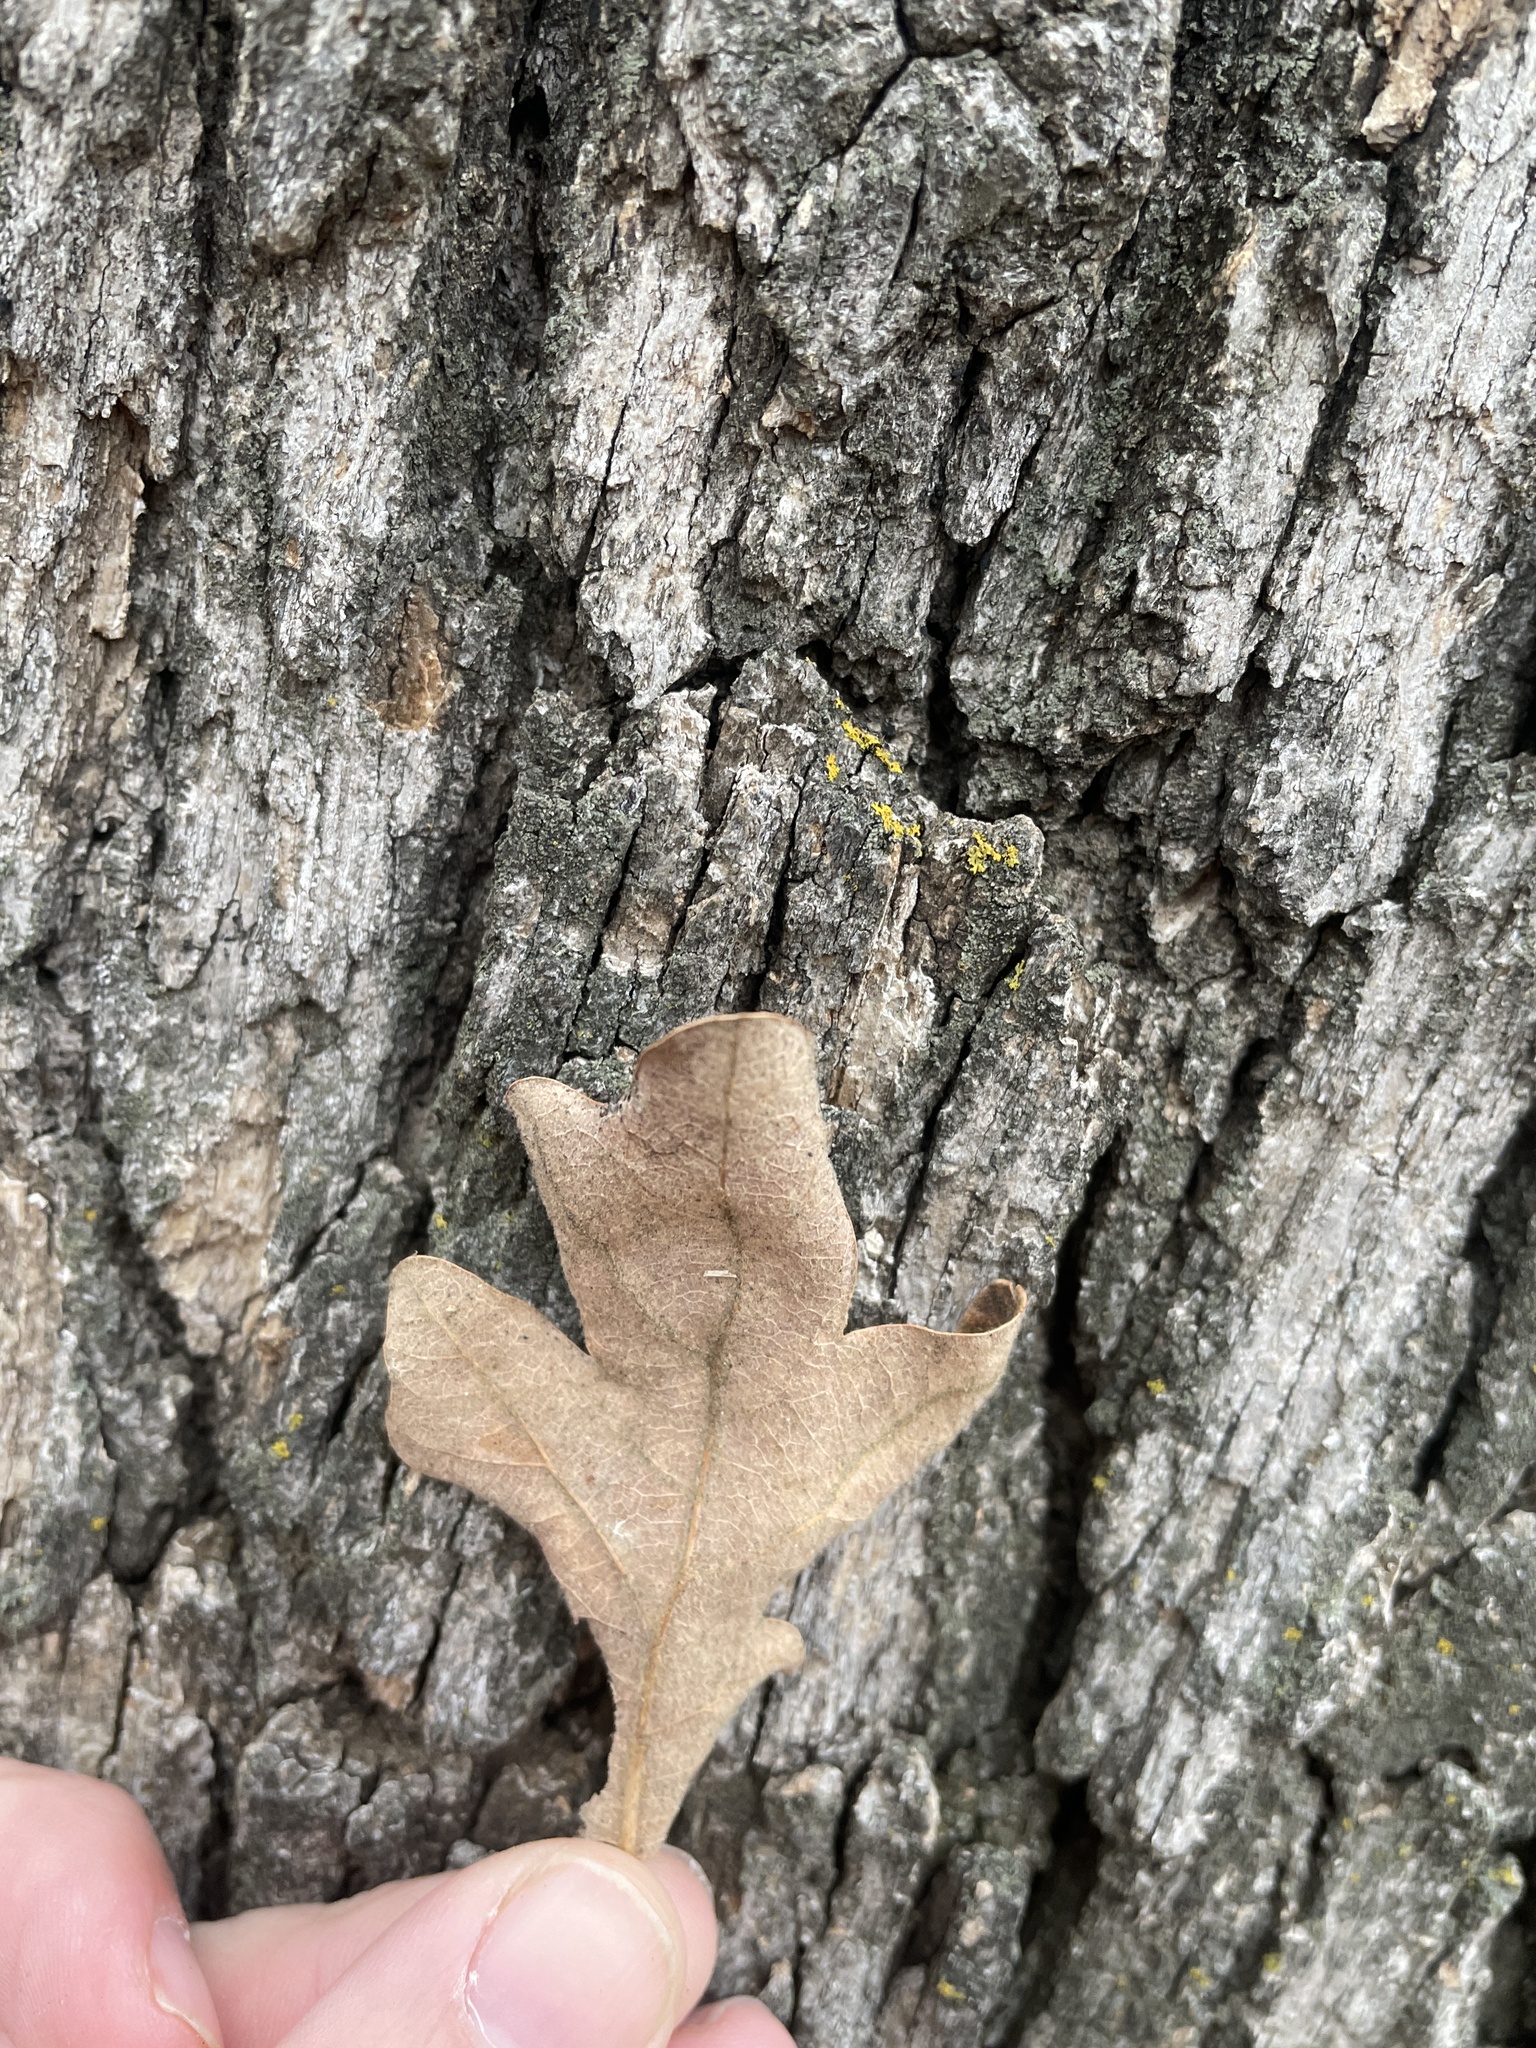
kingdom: Plantae
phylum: Tracheophyta
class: Magnoliopsida
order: Fagales
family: Fagaceae
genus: Quercus
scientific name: Quercus stellata
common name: Post oak
